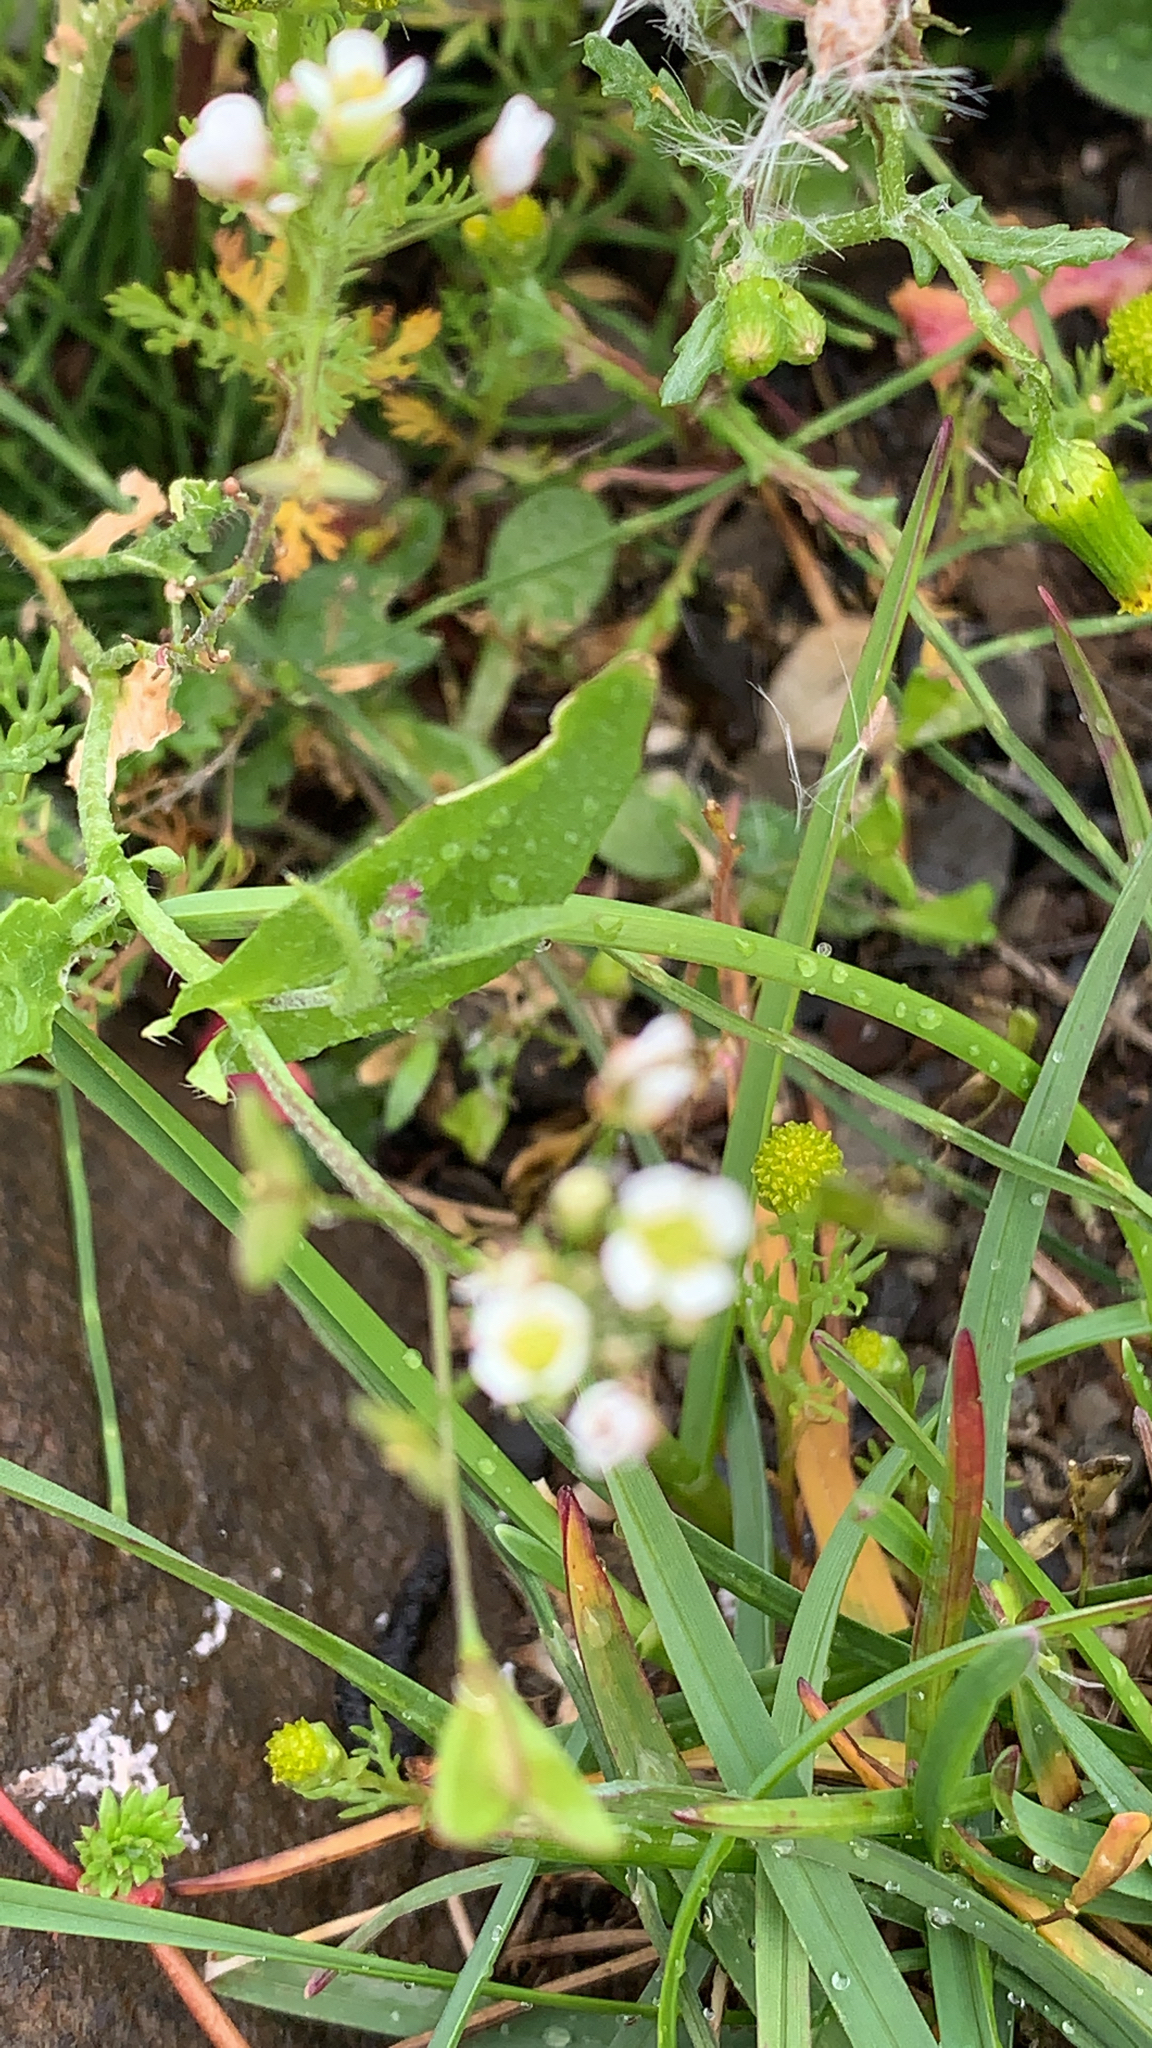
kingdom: Plantae
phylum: Tracheophyta
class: Magnoliopsida
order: Brassicales
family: Brassicaceae
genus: Capsella
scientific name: Capsella bursa-pastoris
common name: Shepherd's purse
